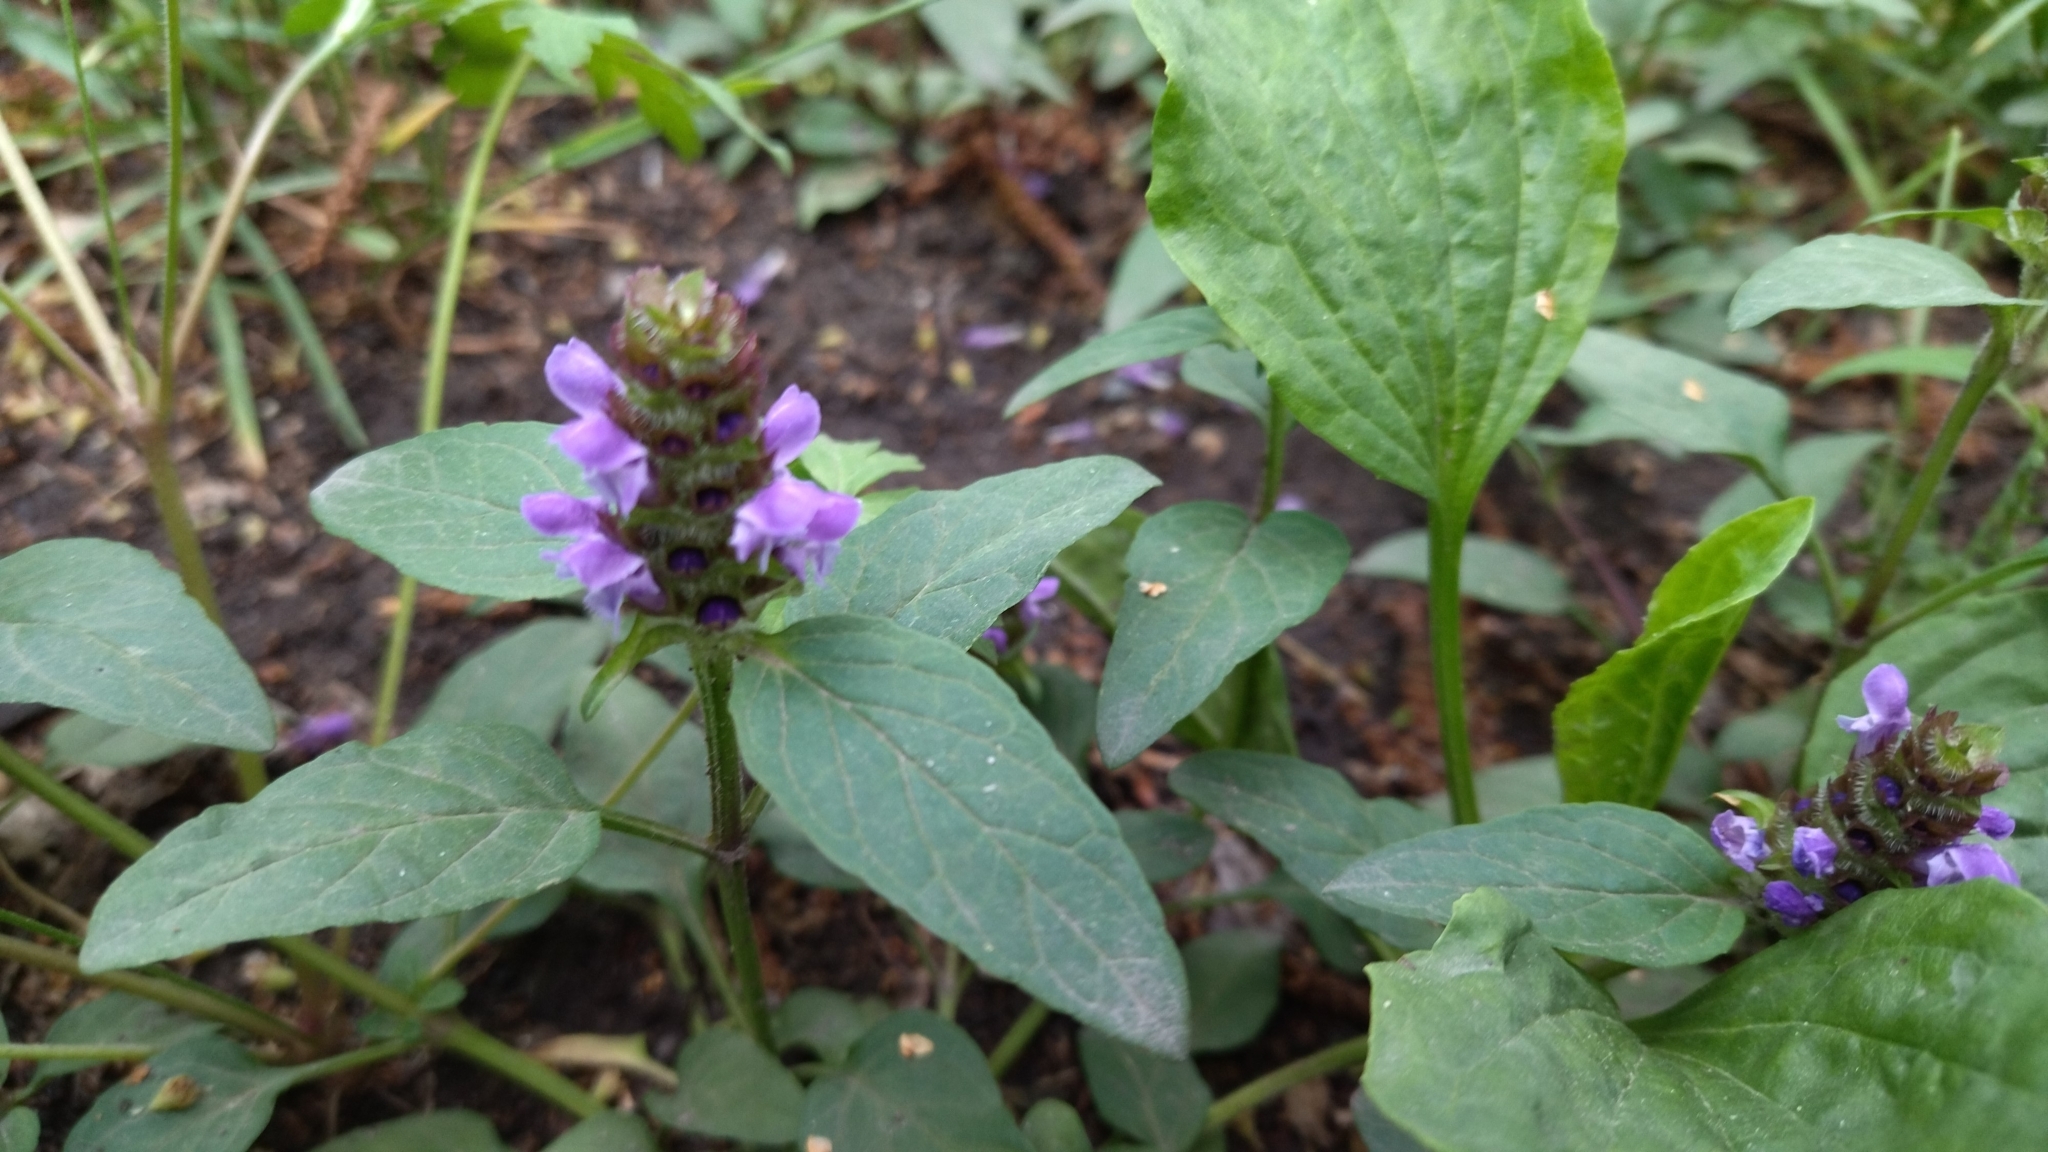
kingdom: Plantae
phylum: Tracheophyta
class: Magnoliopsida
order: Lamiales
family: Lamiaceae
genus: Prunella
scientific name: Prunella vulgaris
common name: Heal-all
